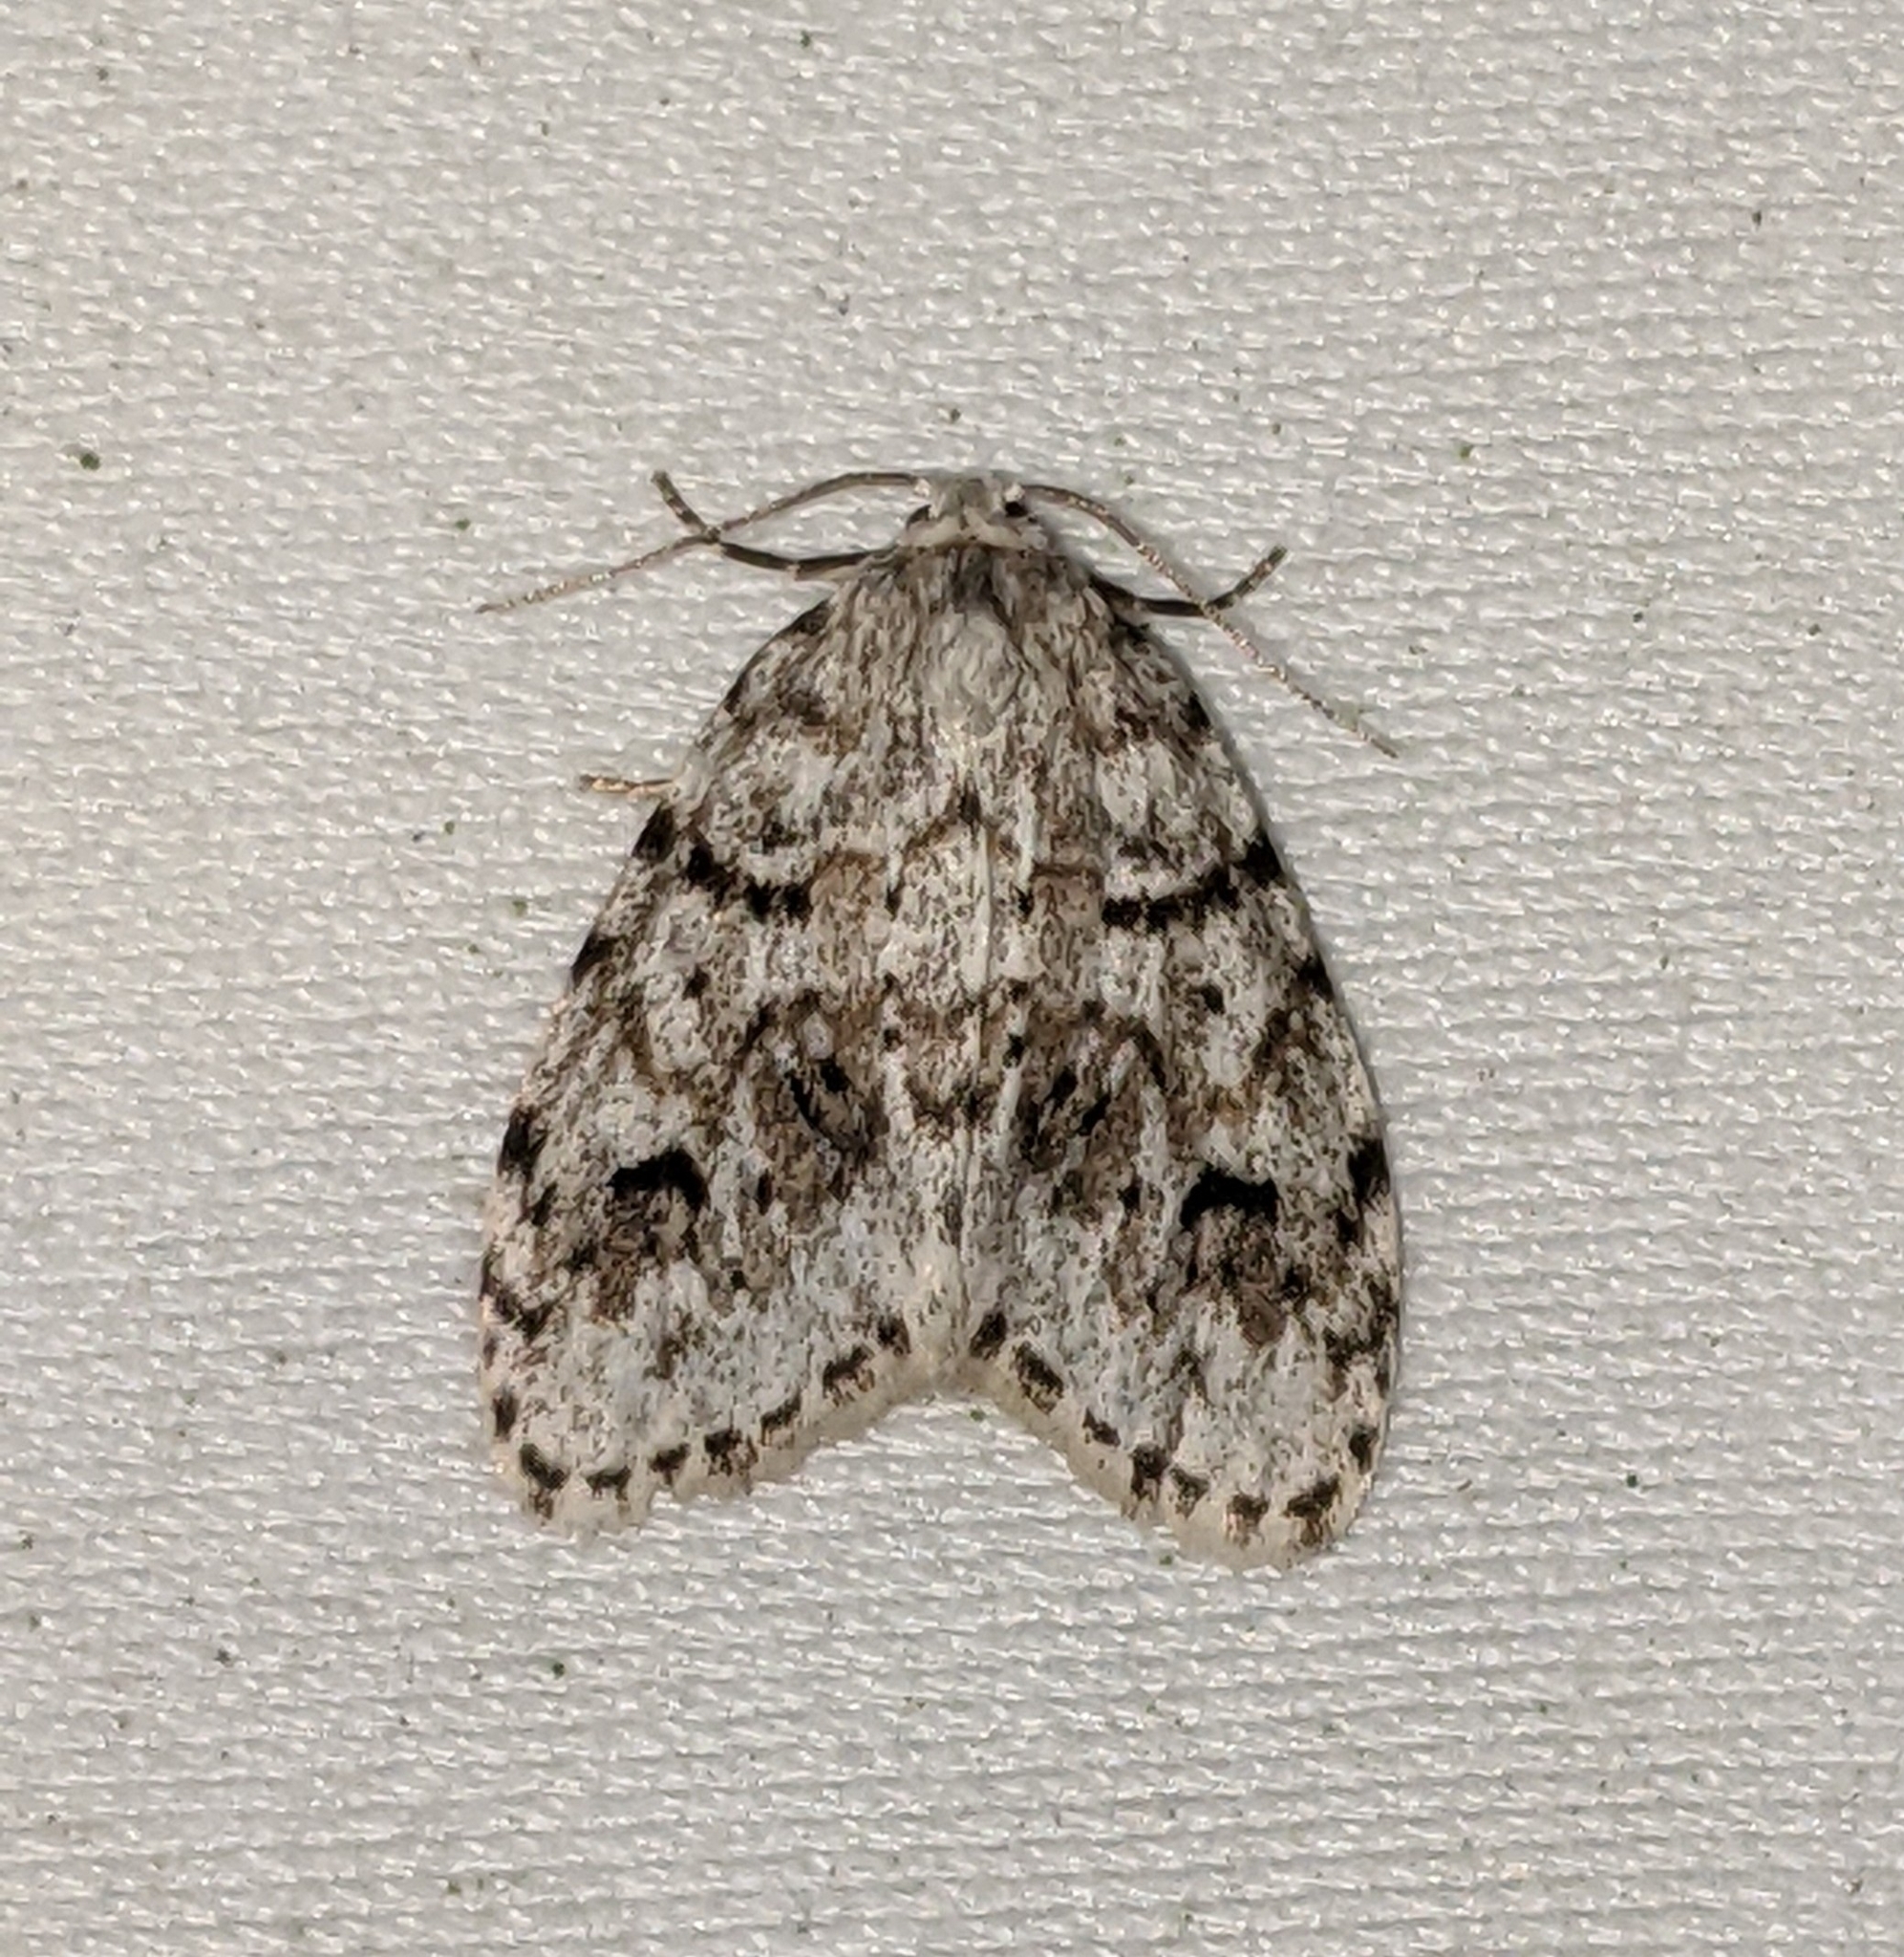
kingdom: Animalia
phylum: Arthropoda
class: Insecta
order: Lepidoptera
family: Erebidae
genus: Clemensia
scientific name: Clemensia umbrata
